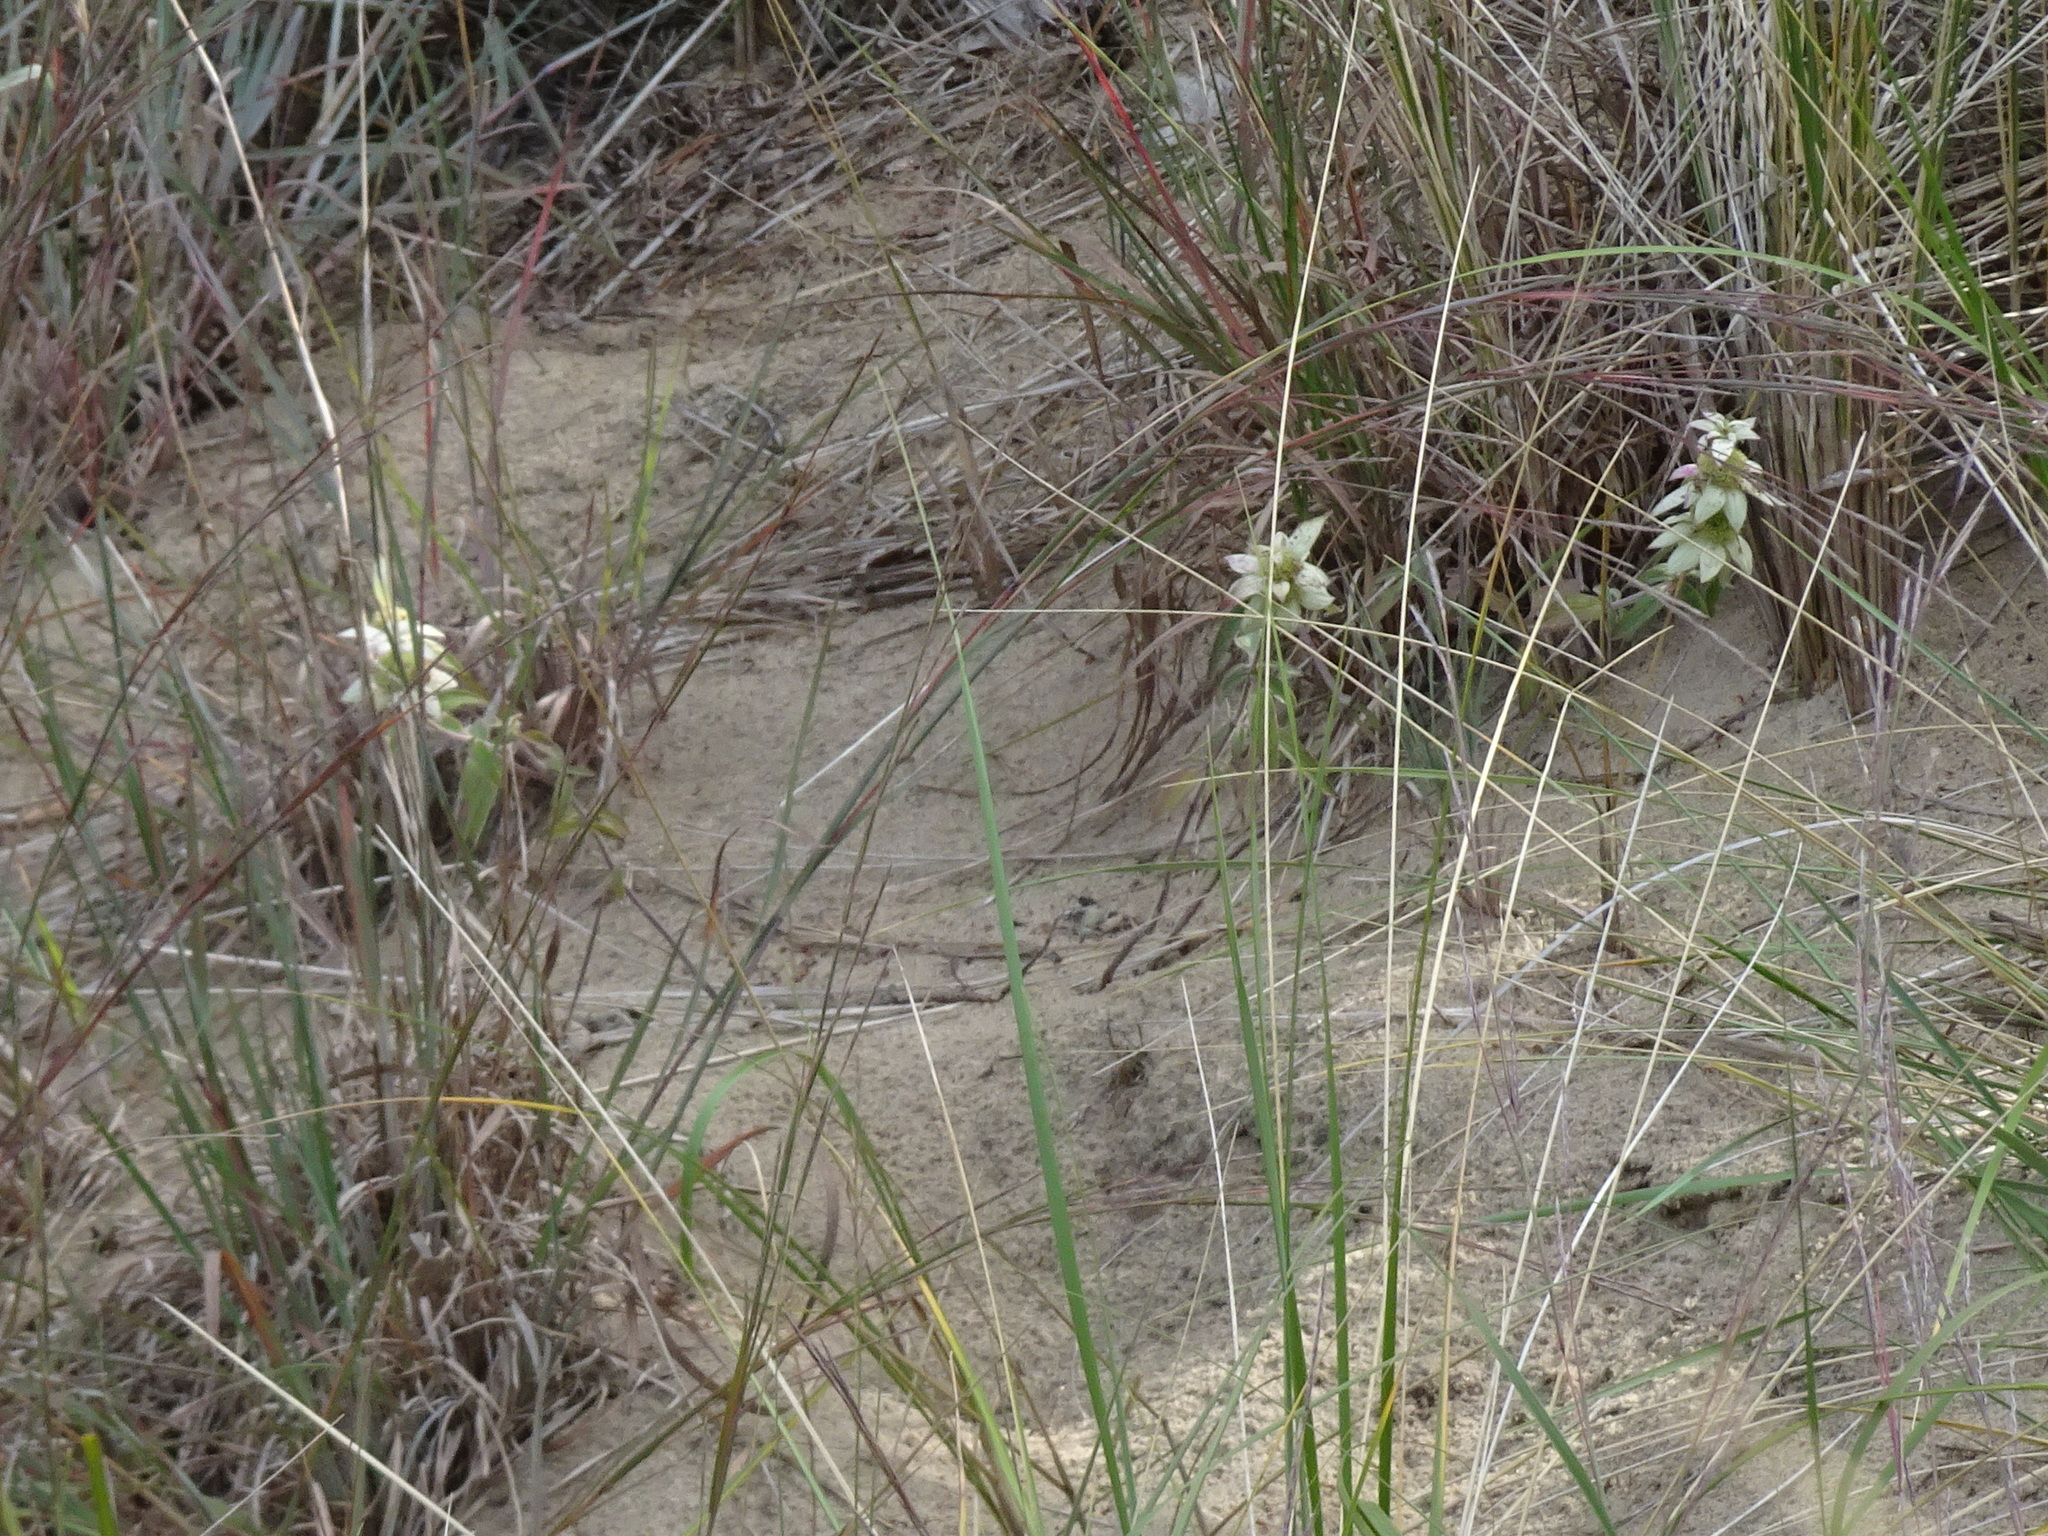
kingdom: Plantae
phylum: Tracheophyta
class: Magnoliopsida
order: Lamiales
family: Lamiaceae
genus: Monarda
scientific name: Monarda punctata
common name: Dotted monarda
